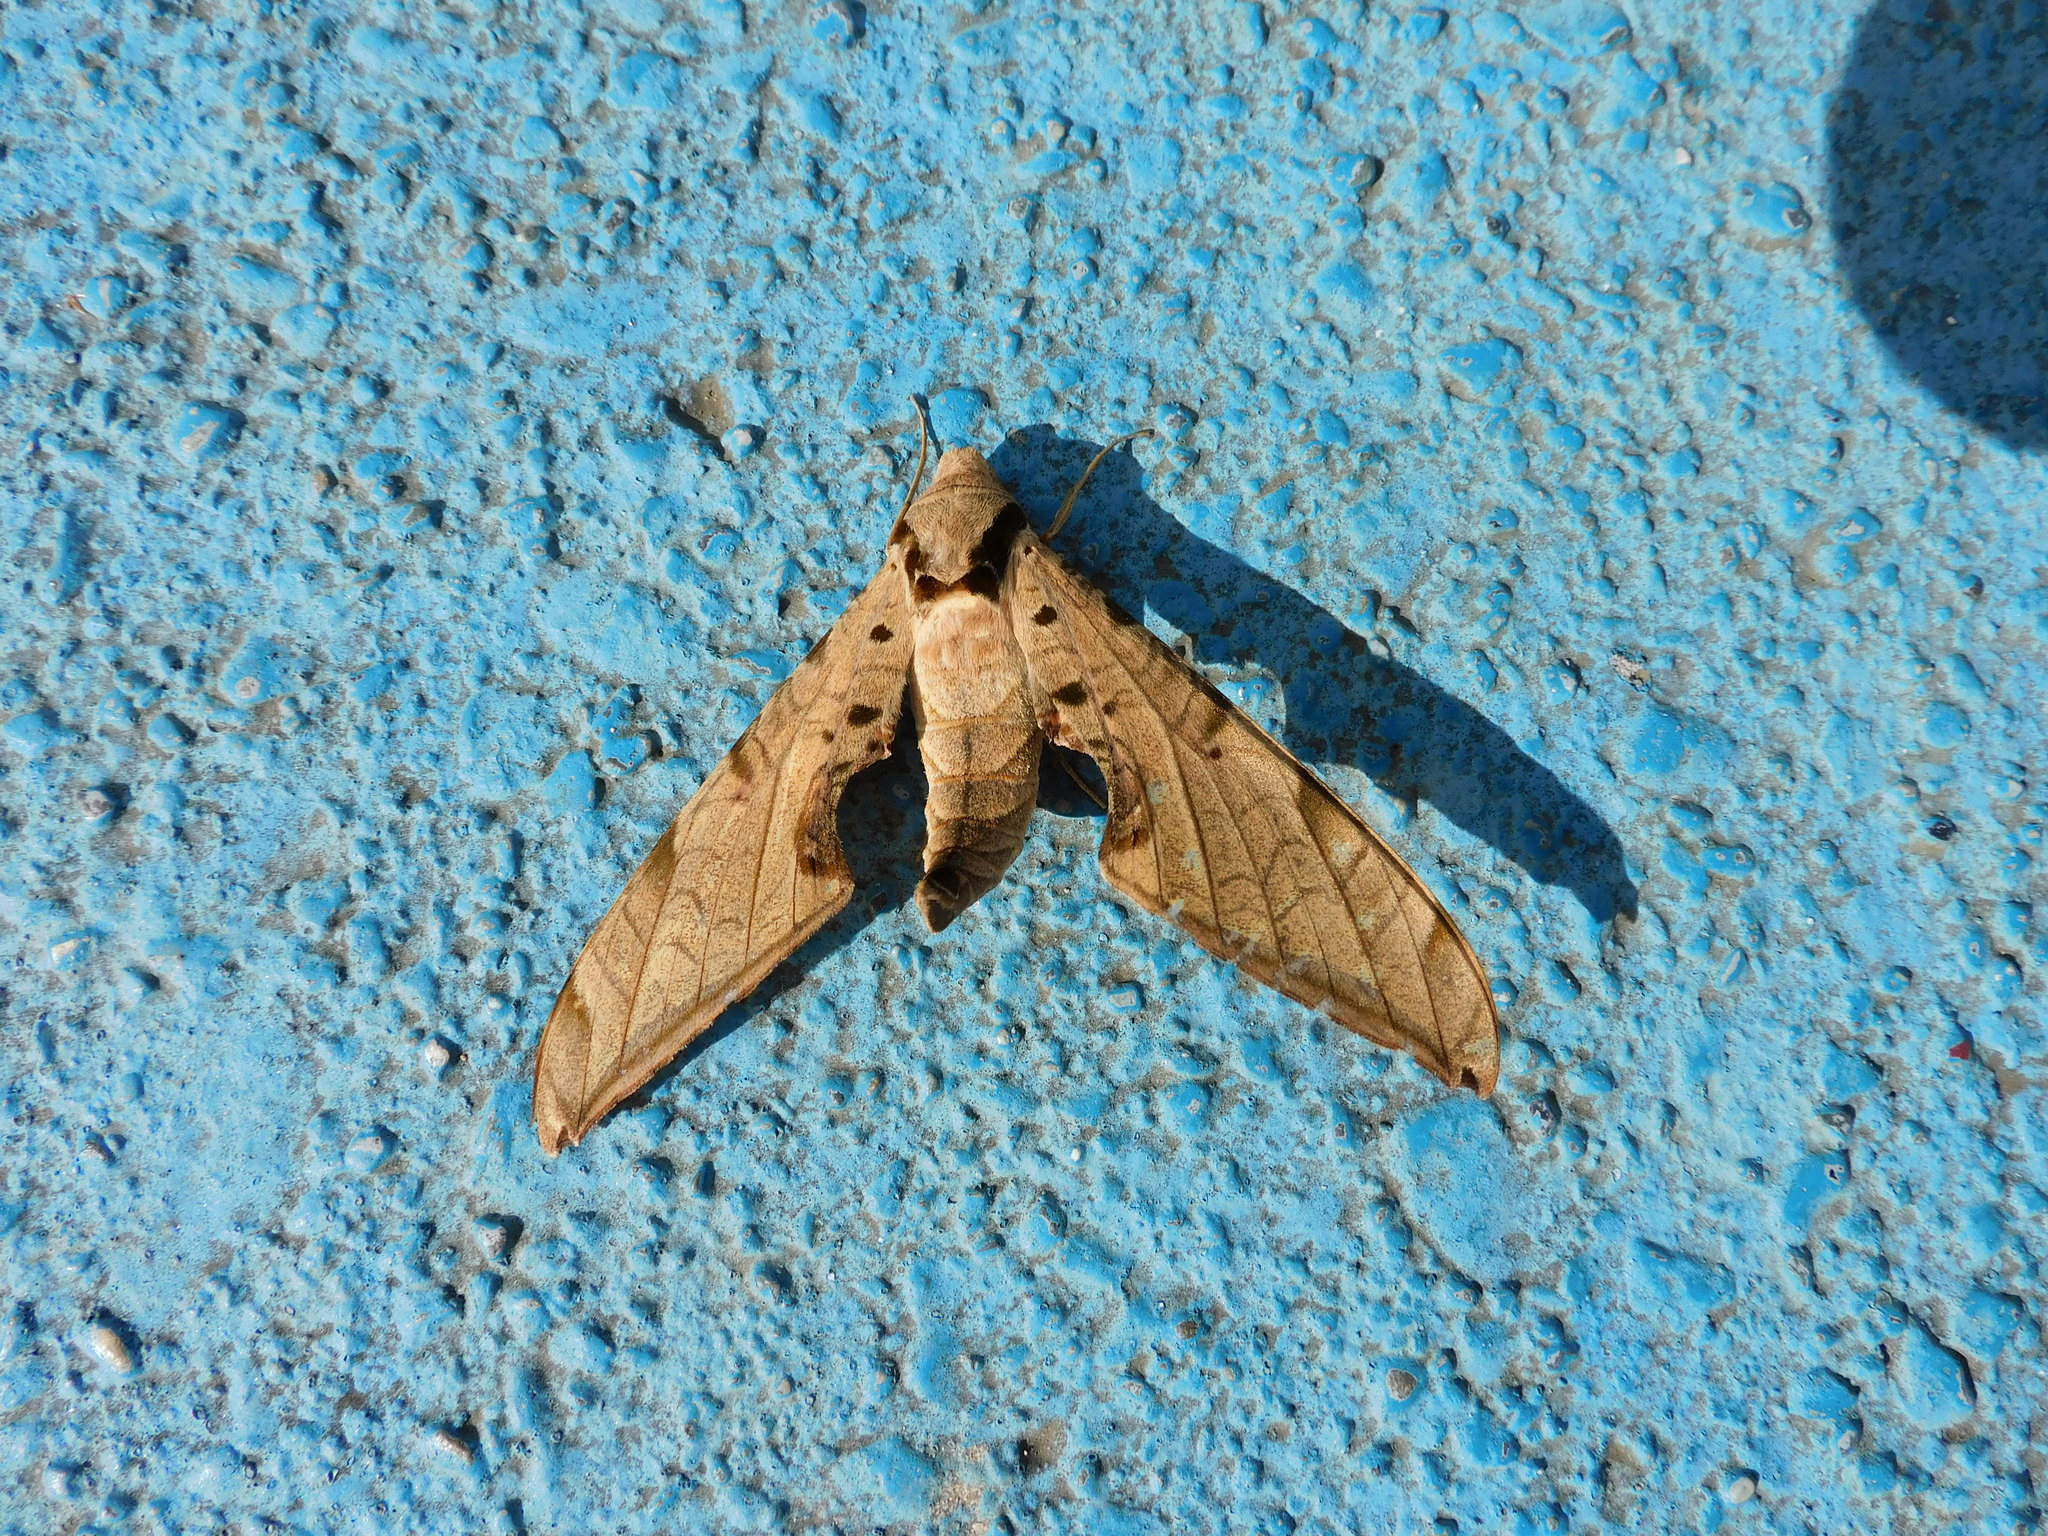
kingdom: Animalia
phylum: Arthropoda
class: Insecta
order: Lepidoptera
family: Sphingidae
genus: Protambulyx
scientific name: Protambulyx strigilis
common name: Streaked sphinx
